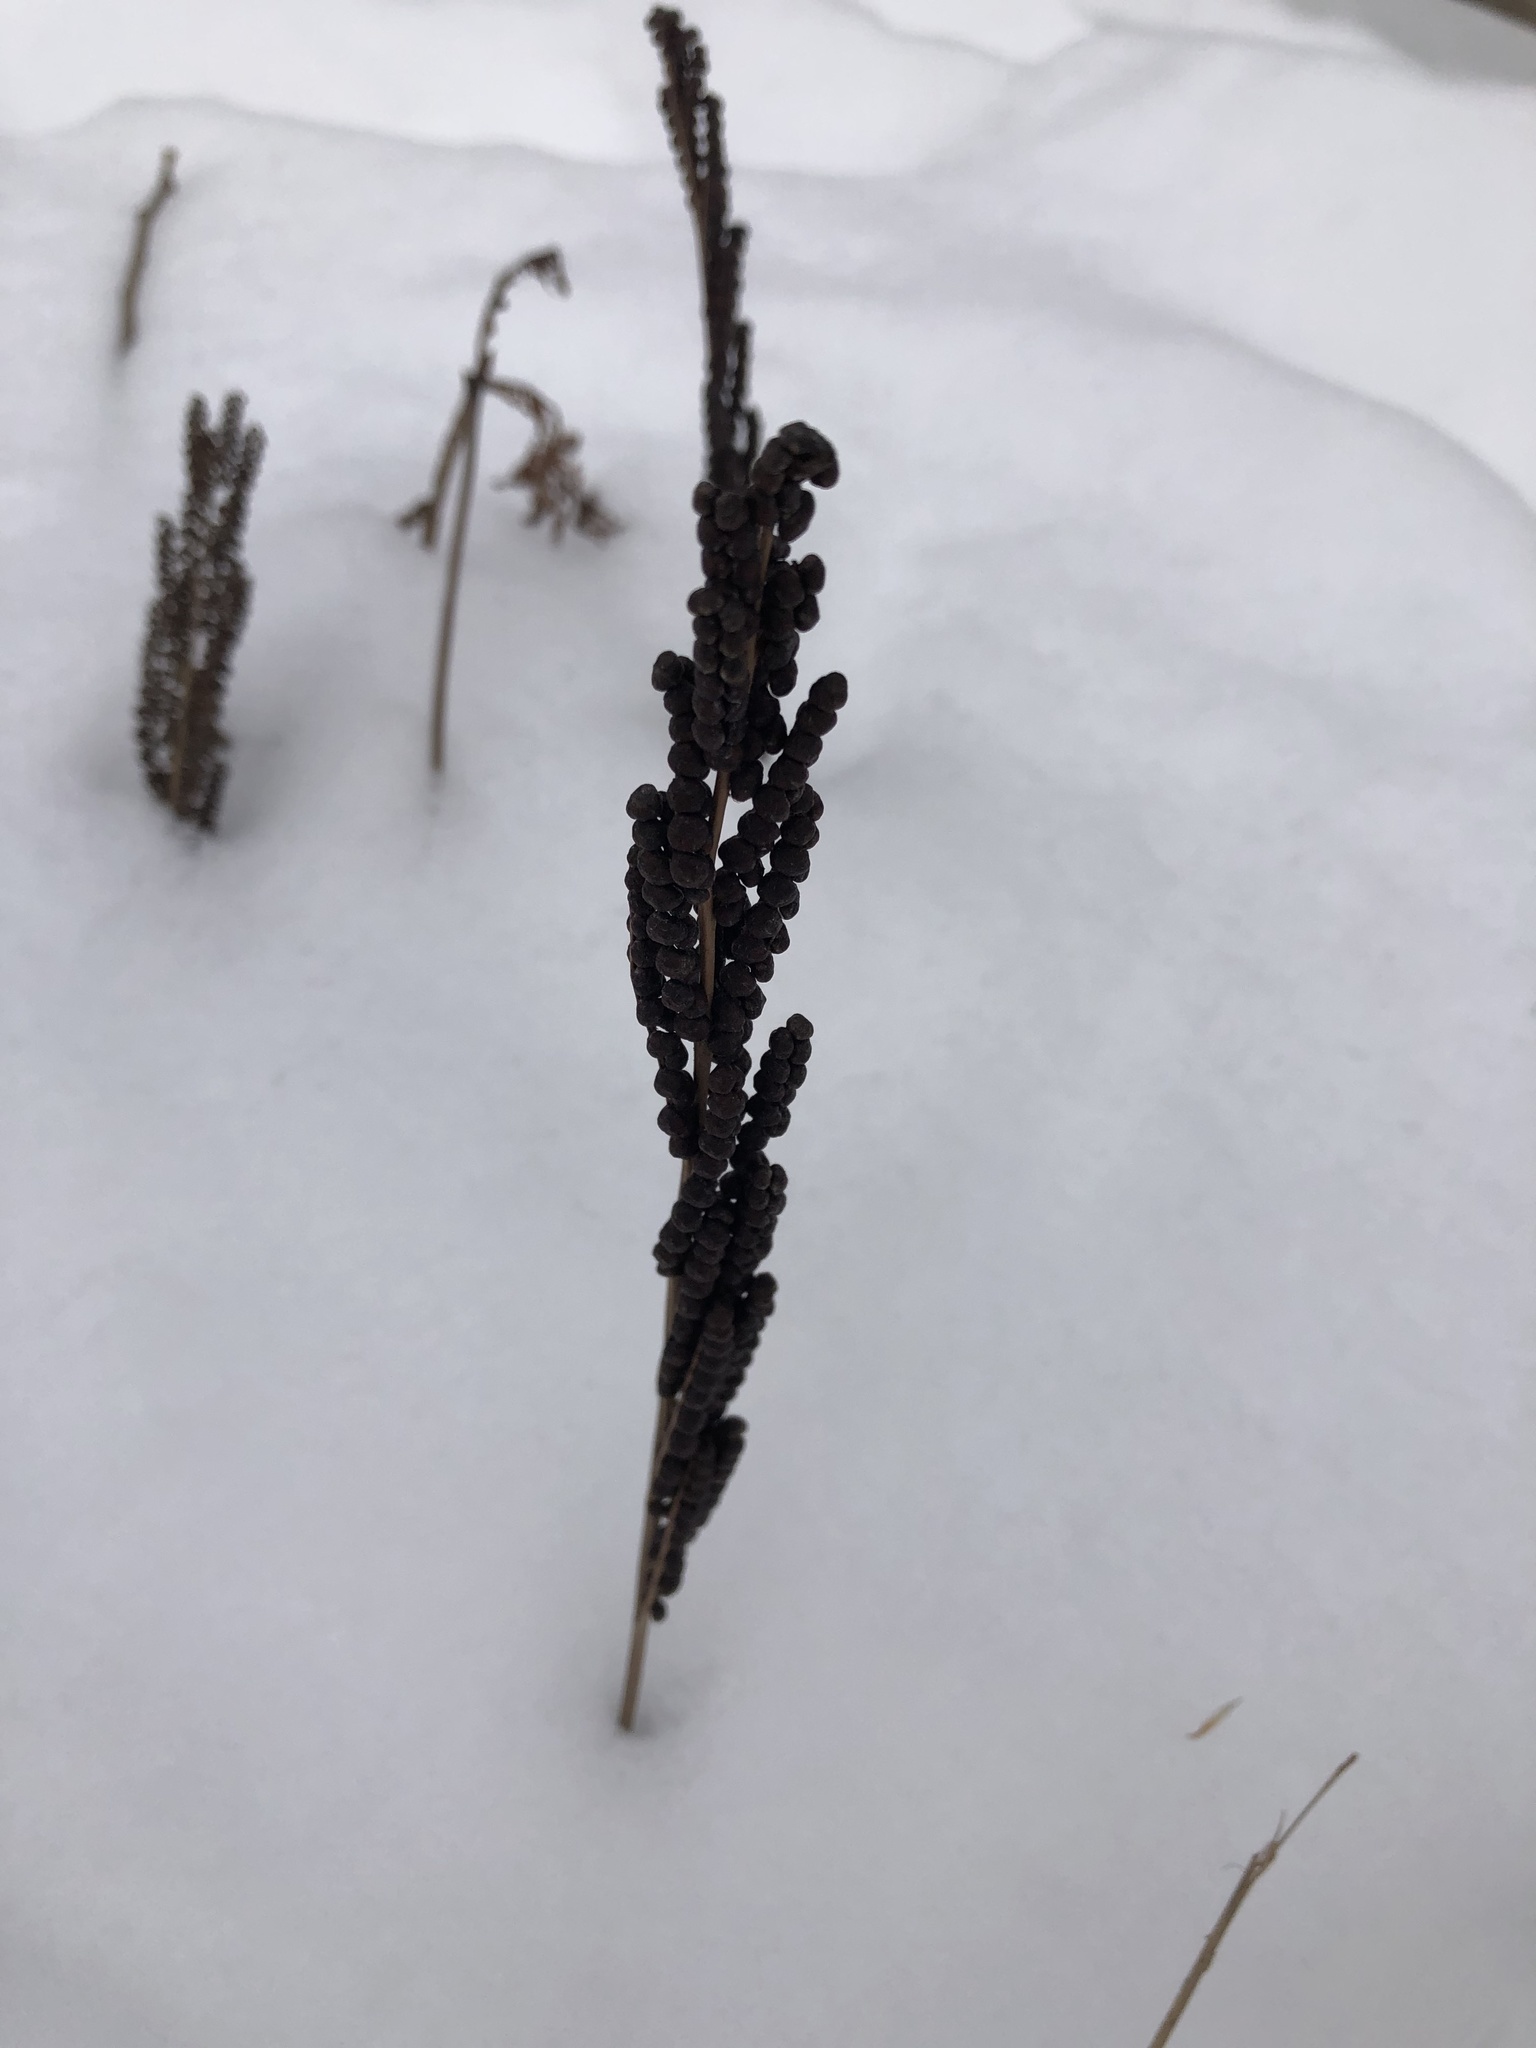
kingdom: Plantae
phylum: Tracheophyta
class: Polypodiopsida
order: Polypodiales
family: Onocleaceae
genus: Onoclea
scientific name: Onoclea sensibilis
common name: Sensitive fern
